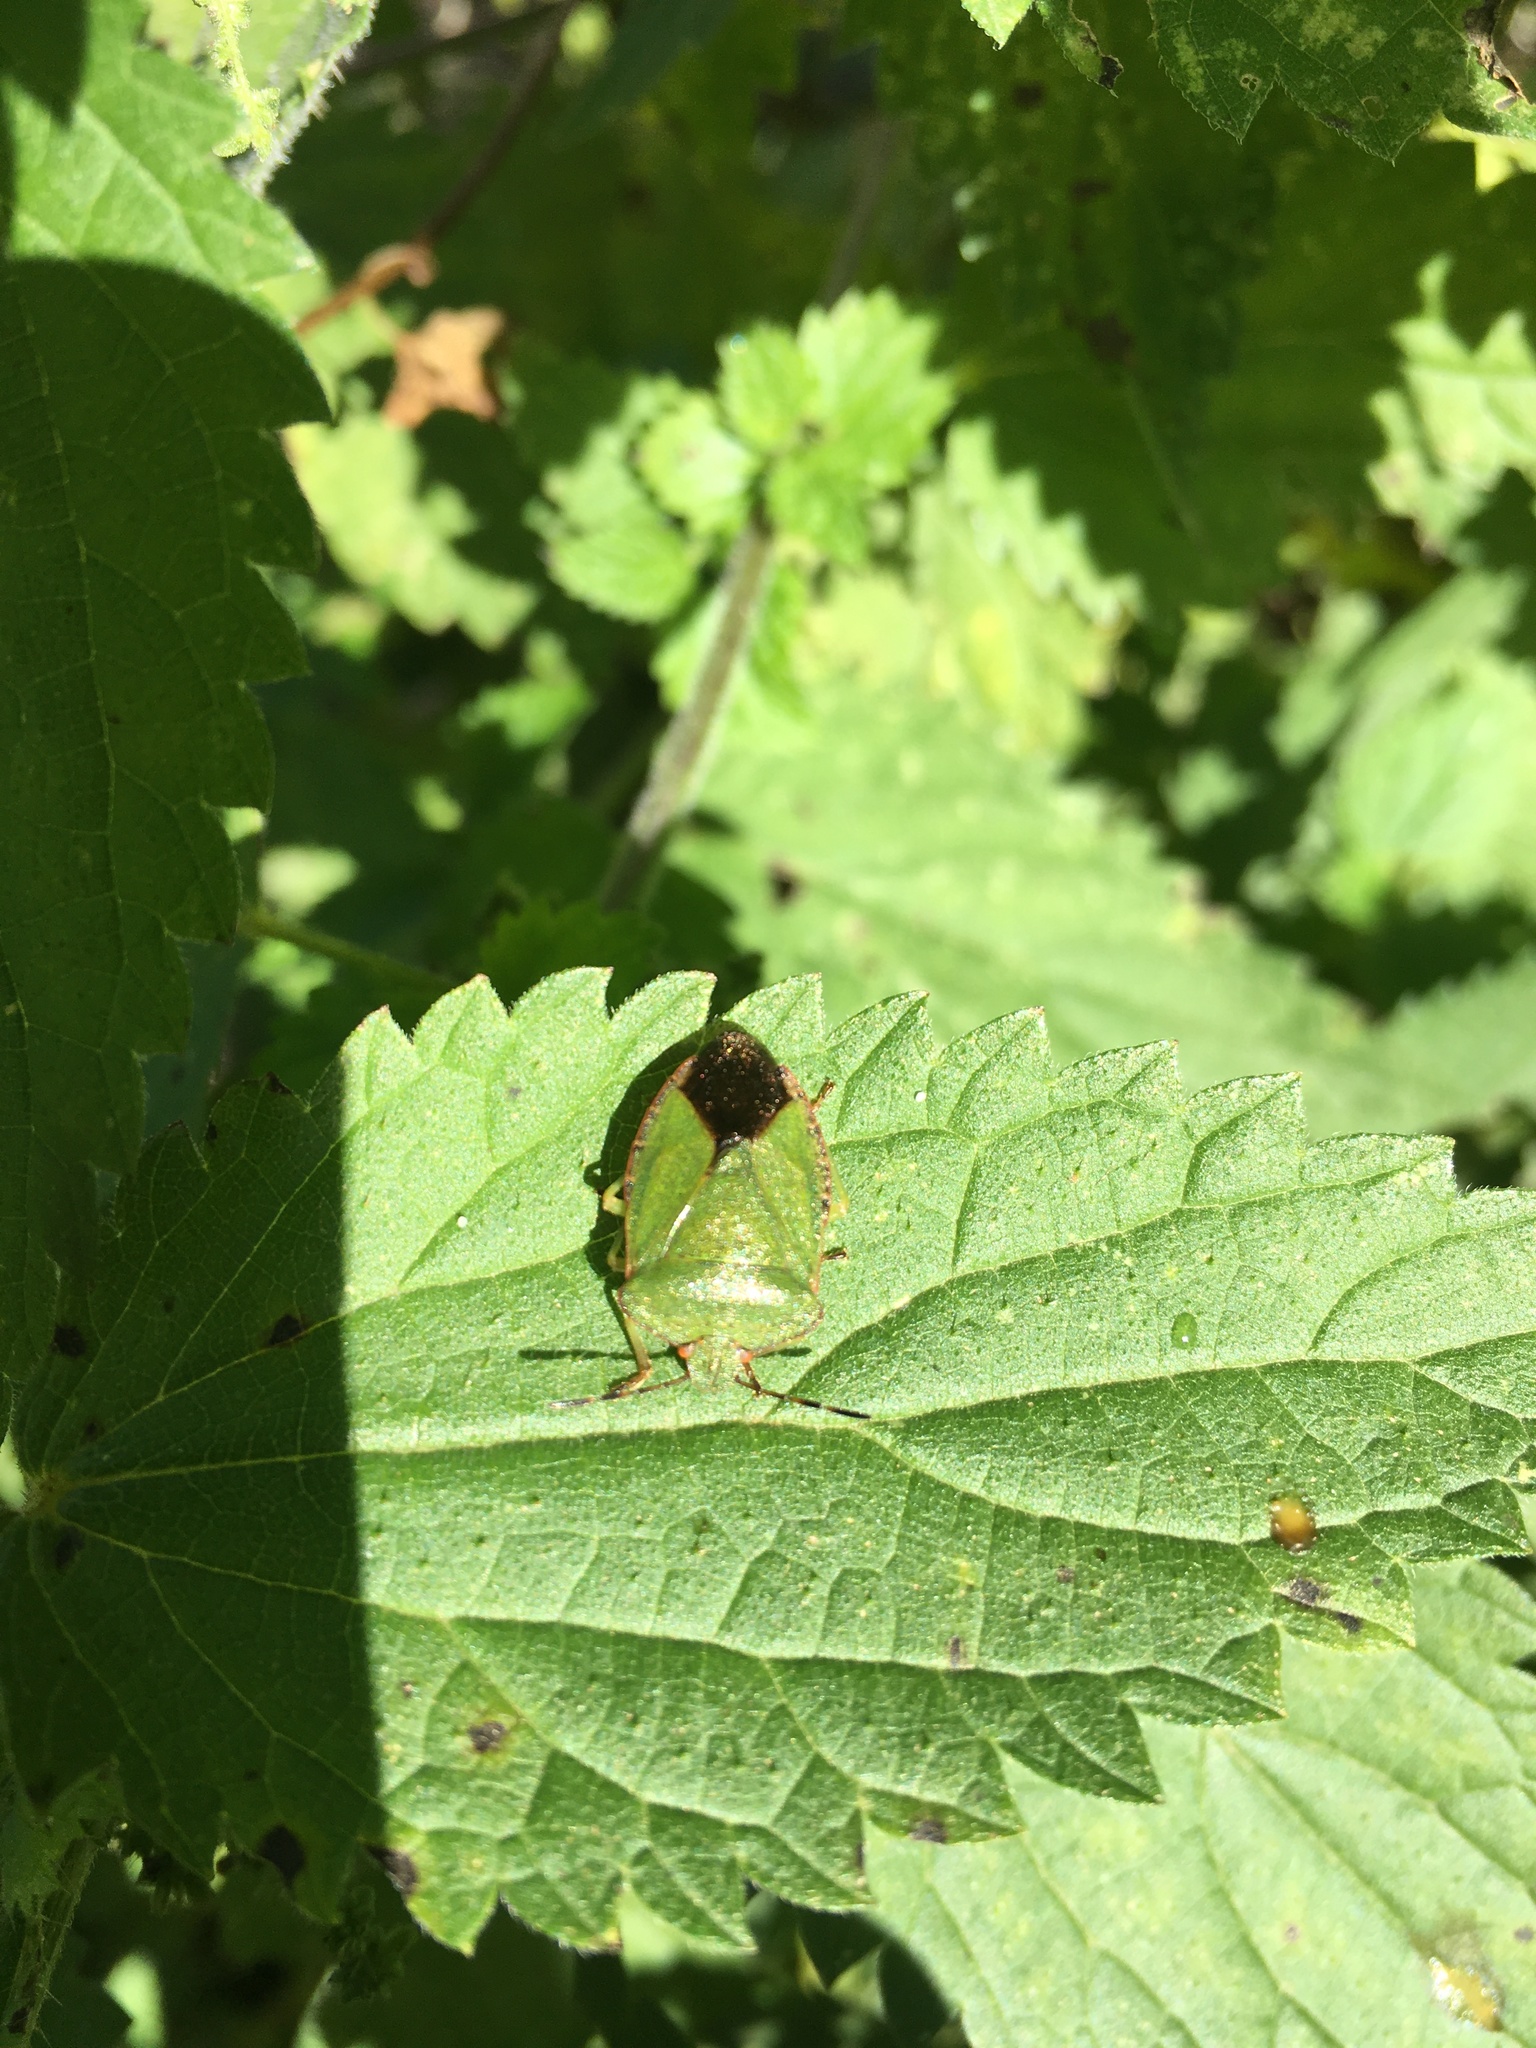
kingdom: Animalia
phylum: Arthropoda
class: Insecta
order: Hemiptera
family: Pentatomidae
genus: Palomena
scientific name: Palomena prasina
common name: Green shieldbug
